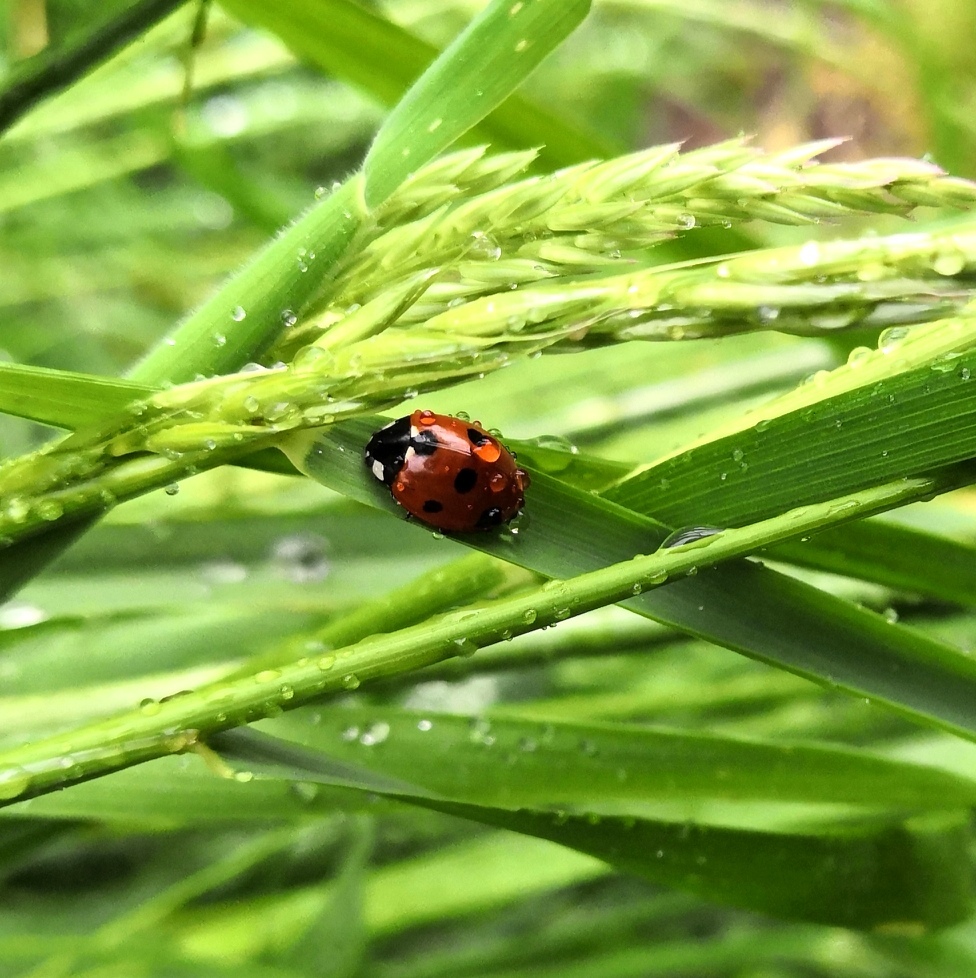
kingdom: Animalia
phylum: Arthropoda
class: Insecta
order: Coleoptera
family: Coccinellidae
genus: Coccinella
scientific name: Coccinella septempunctata
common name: Sevenspotted lady beetle
